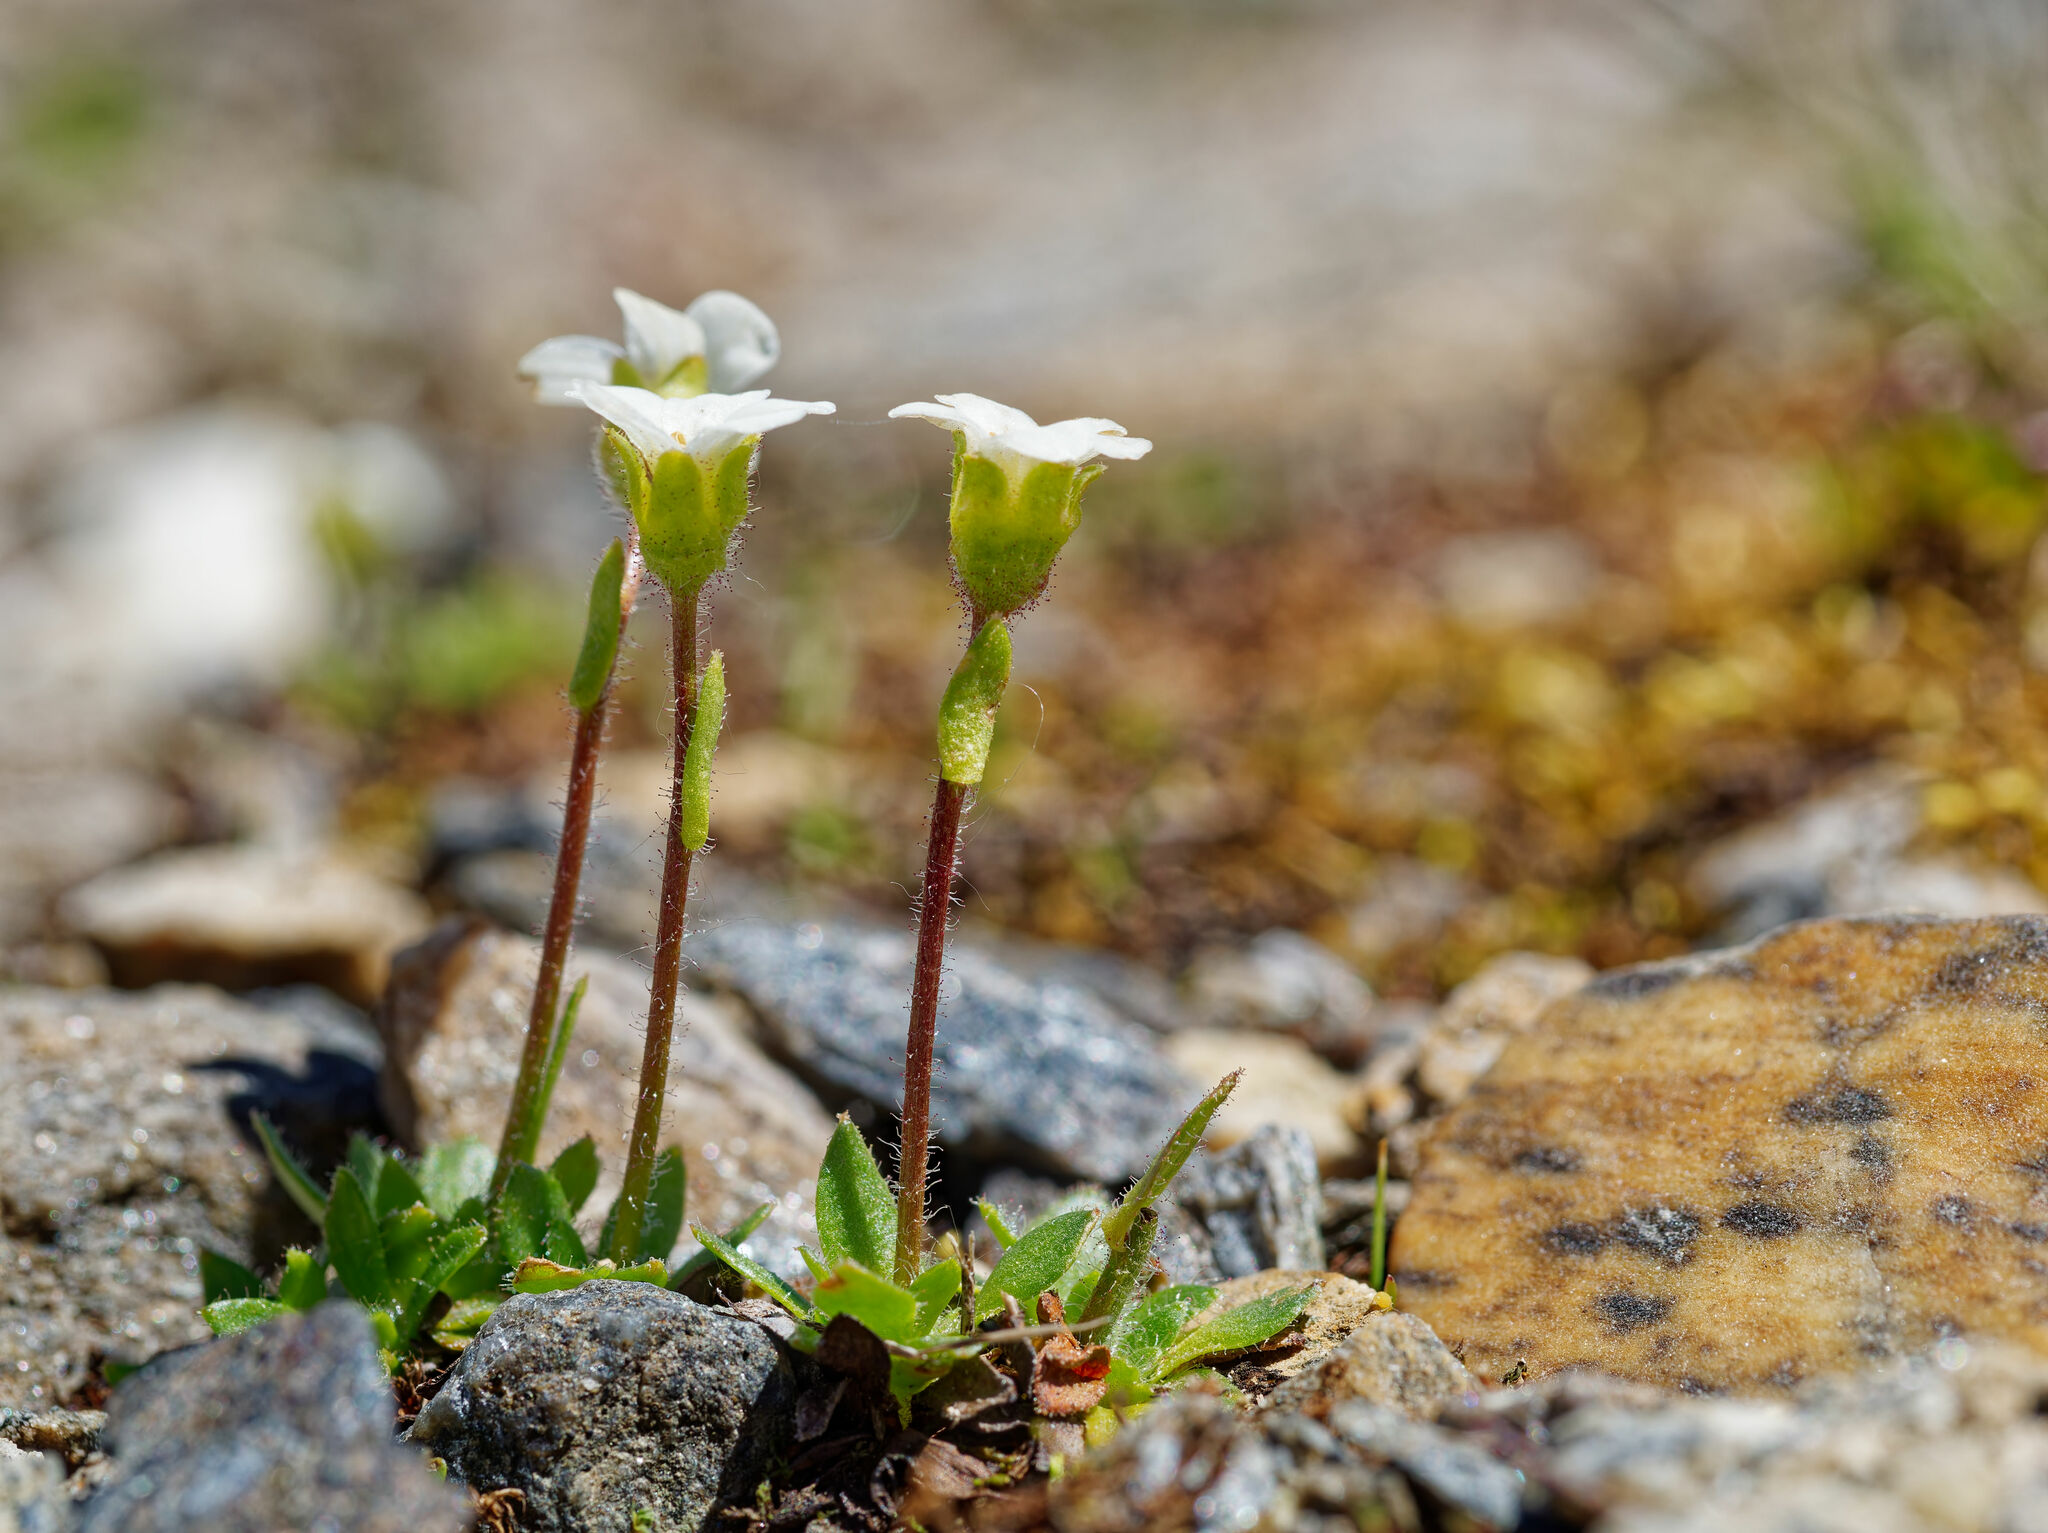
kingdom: Plantae
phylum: Tracheophyta
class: Magnoliopsida
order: Saxifragales
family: Saxifragaceae
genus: Saxifraga
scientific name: Saxifraga androsacea
